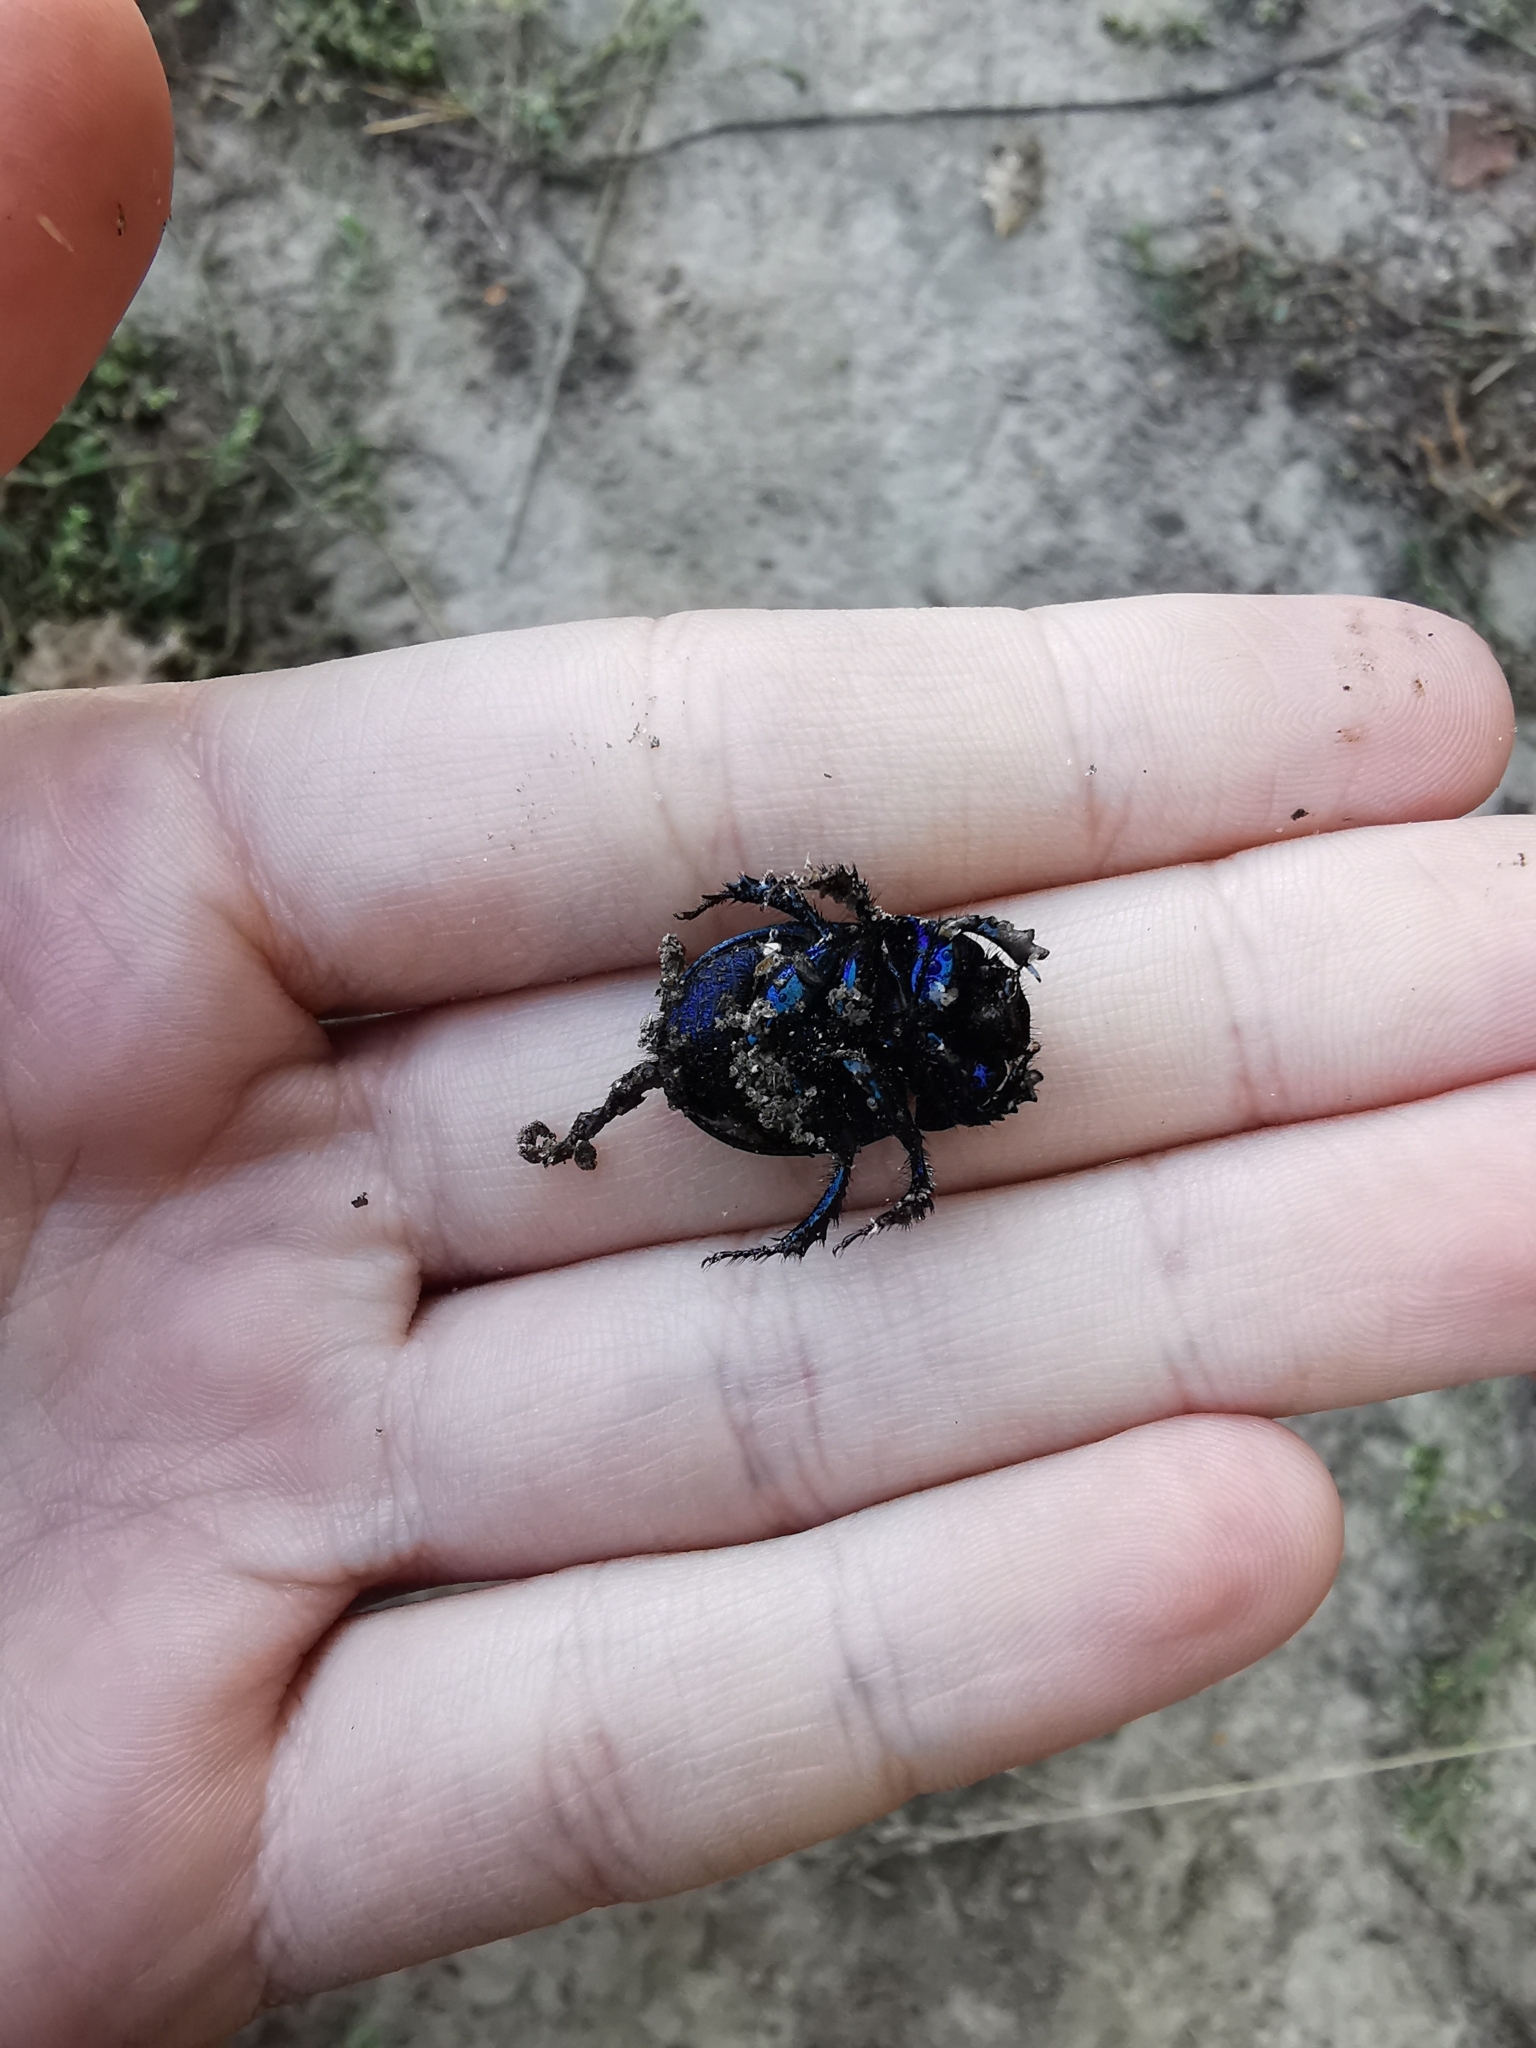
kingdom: Animalia
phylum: Arthropoda
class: Insecta
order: Coleoptera
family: Geotrupidae
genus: Anoplotrupes
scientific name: Anoplotrupes stercorosus
